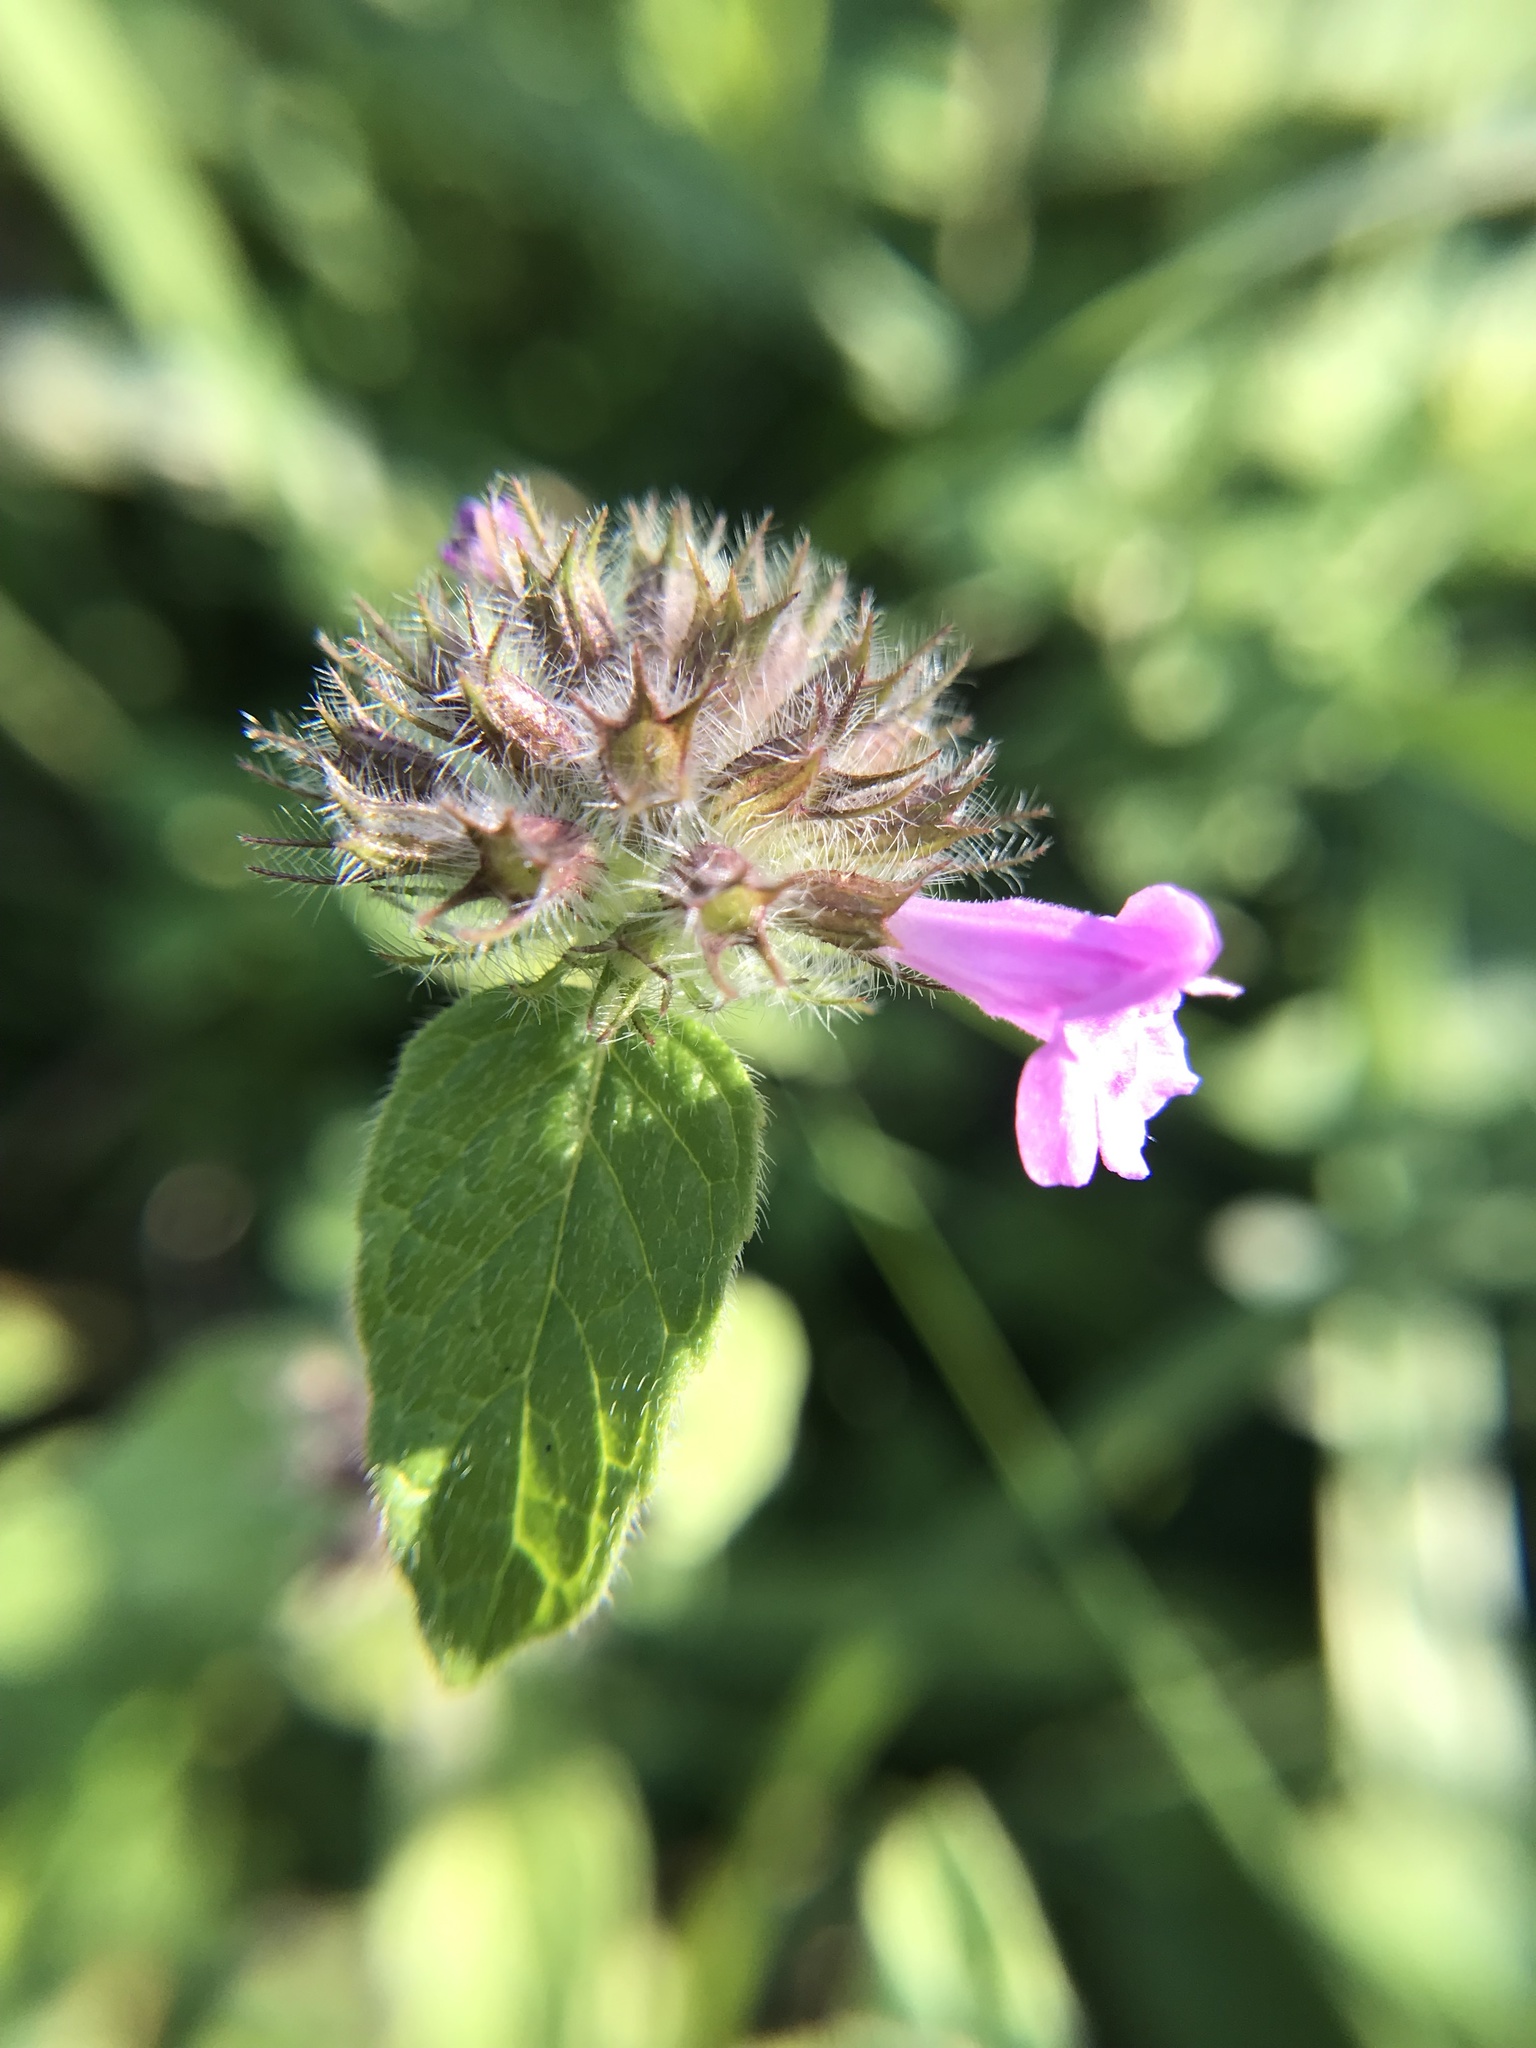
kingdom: Plantae
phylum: Tracheophyta
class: Magnoliopsida
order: Lamiales
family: Lamiaceae
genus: Clinopodium
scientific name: Clinopodium vulgare
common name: Wild basil
